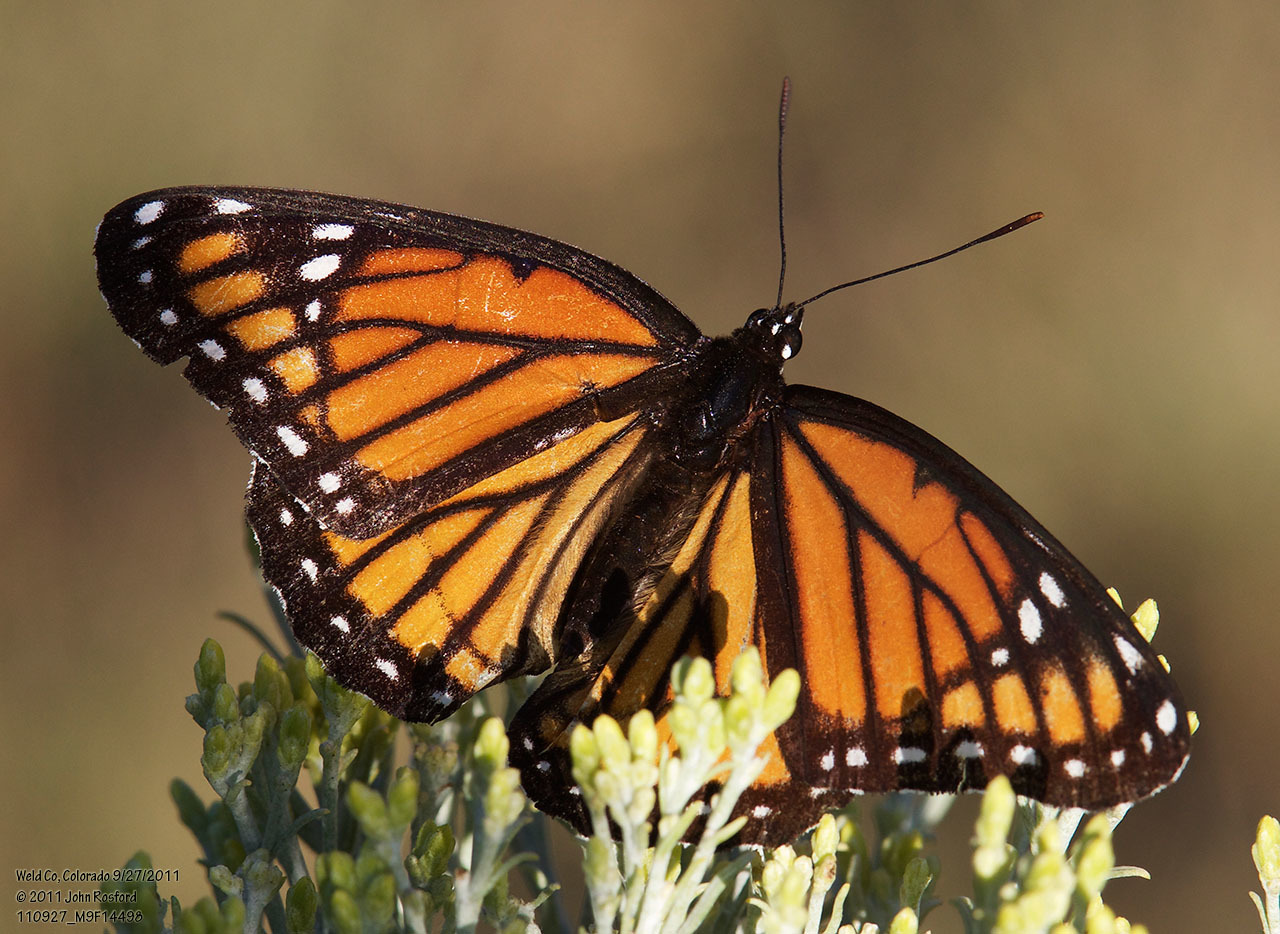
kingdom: Animalia
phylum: Arthropoda
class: Insecta
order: Lepidoptera
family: Nymphalidae
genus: Limenitis
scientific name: Limenitis archippus
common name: Viceroy
